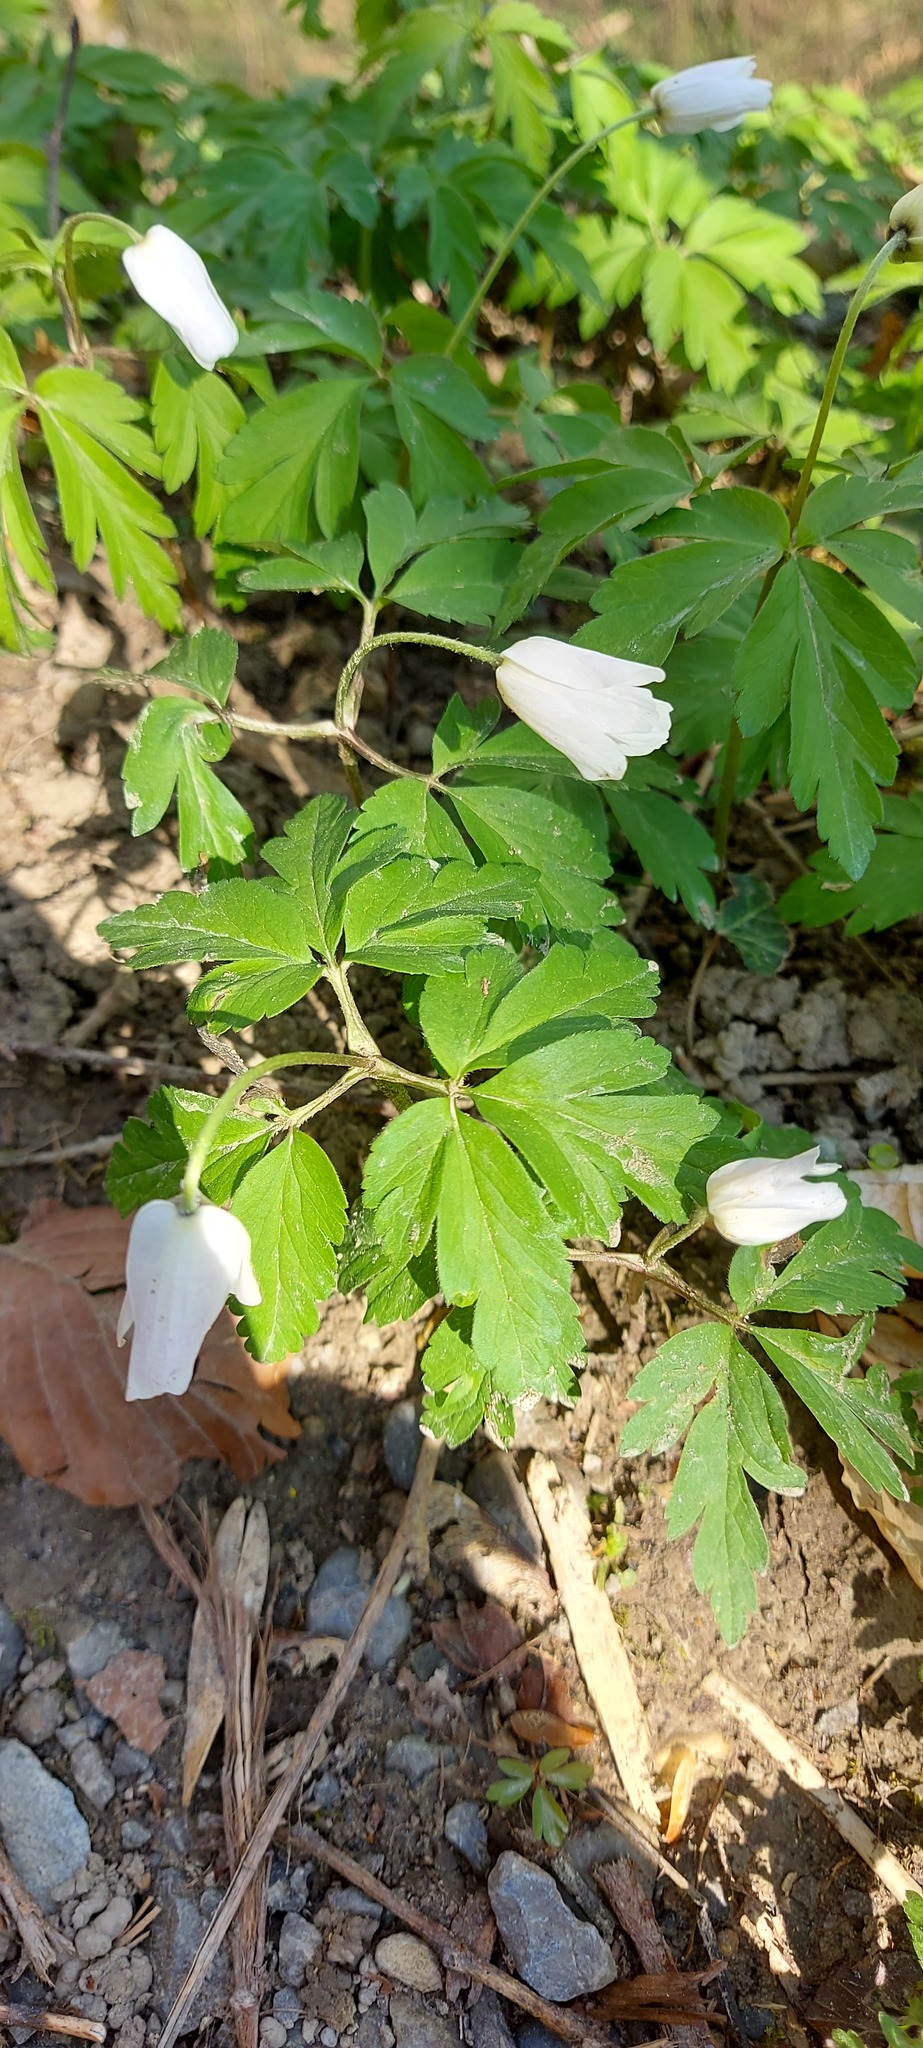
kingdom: Plantae
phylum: Tracheophyta
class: Magnoliopsida
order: Ranunculales
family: Ranunculaceae
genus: Anemone
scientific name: Anemone nemorosa
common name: Wood anemone
